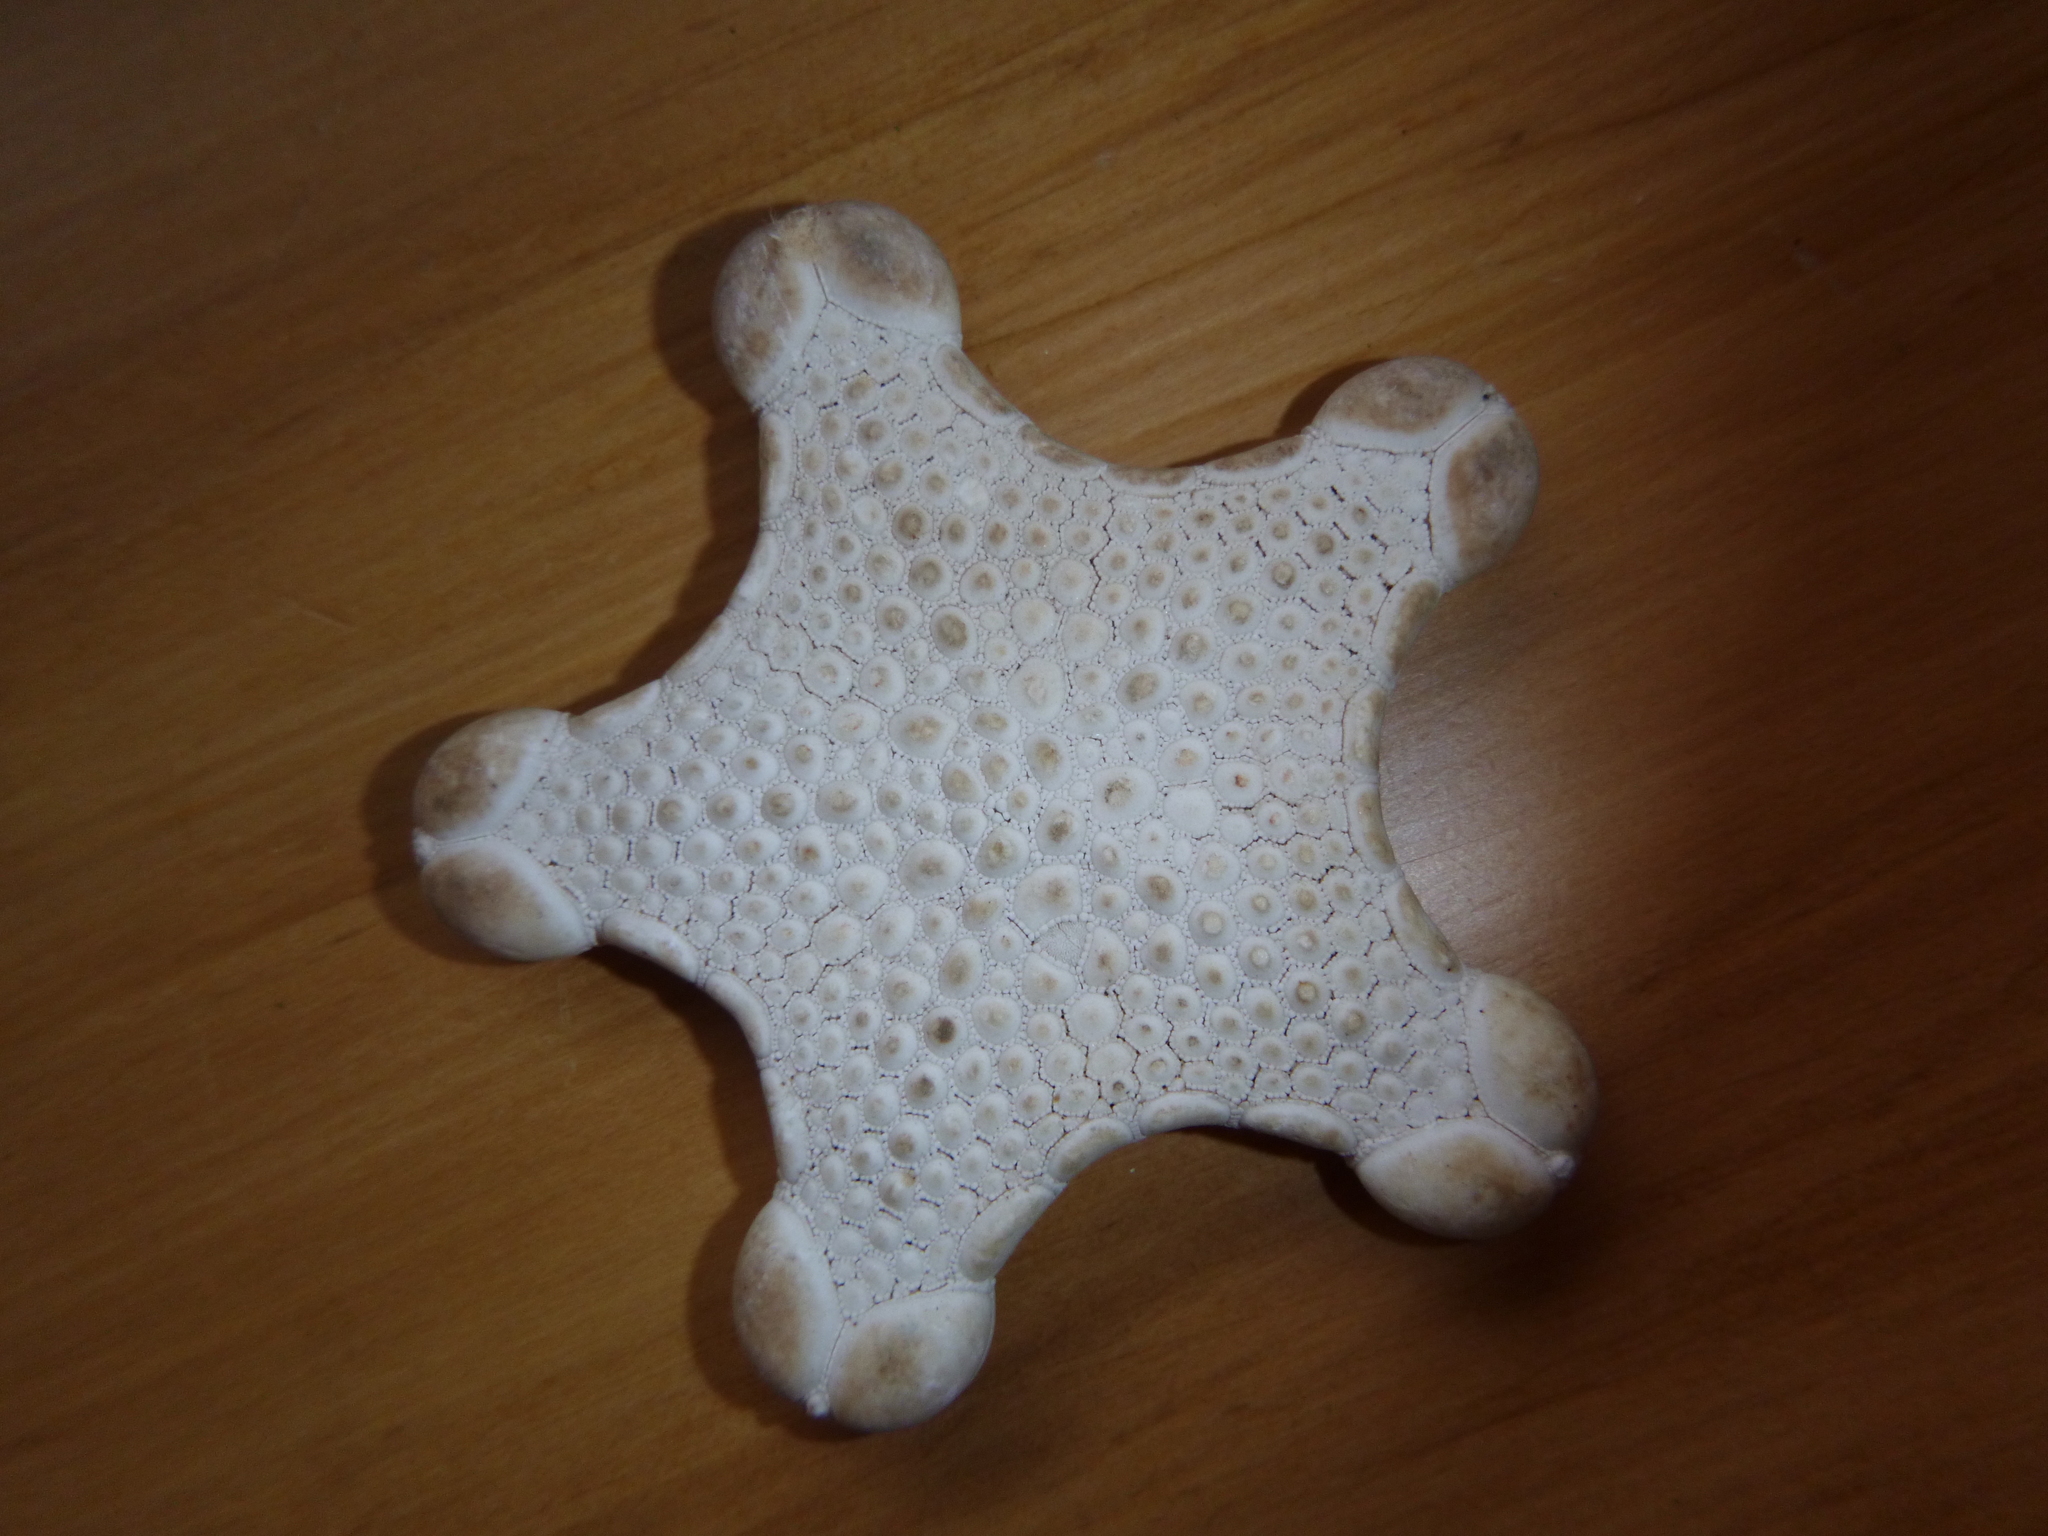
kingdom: Animalia
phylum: Echinodermata
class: Asteroidea
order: Valvatida
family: Goniasteridae
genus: Pentagonaster
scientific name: Pentagonaster pulchellus
